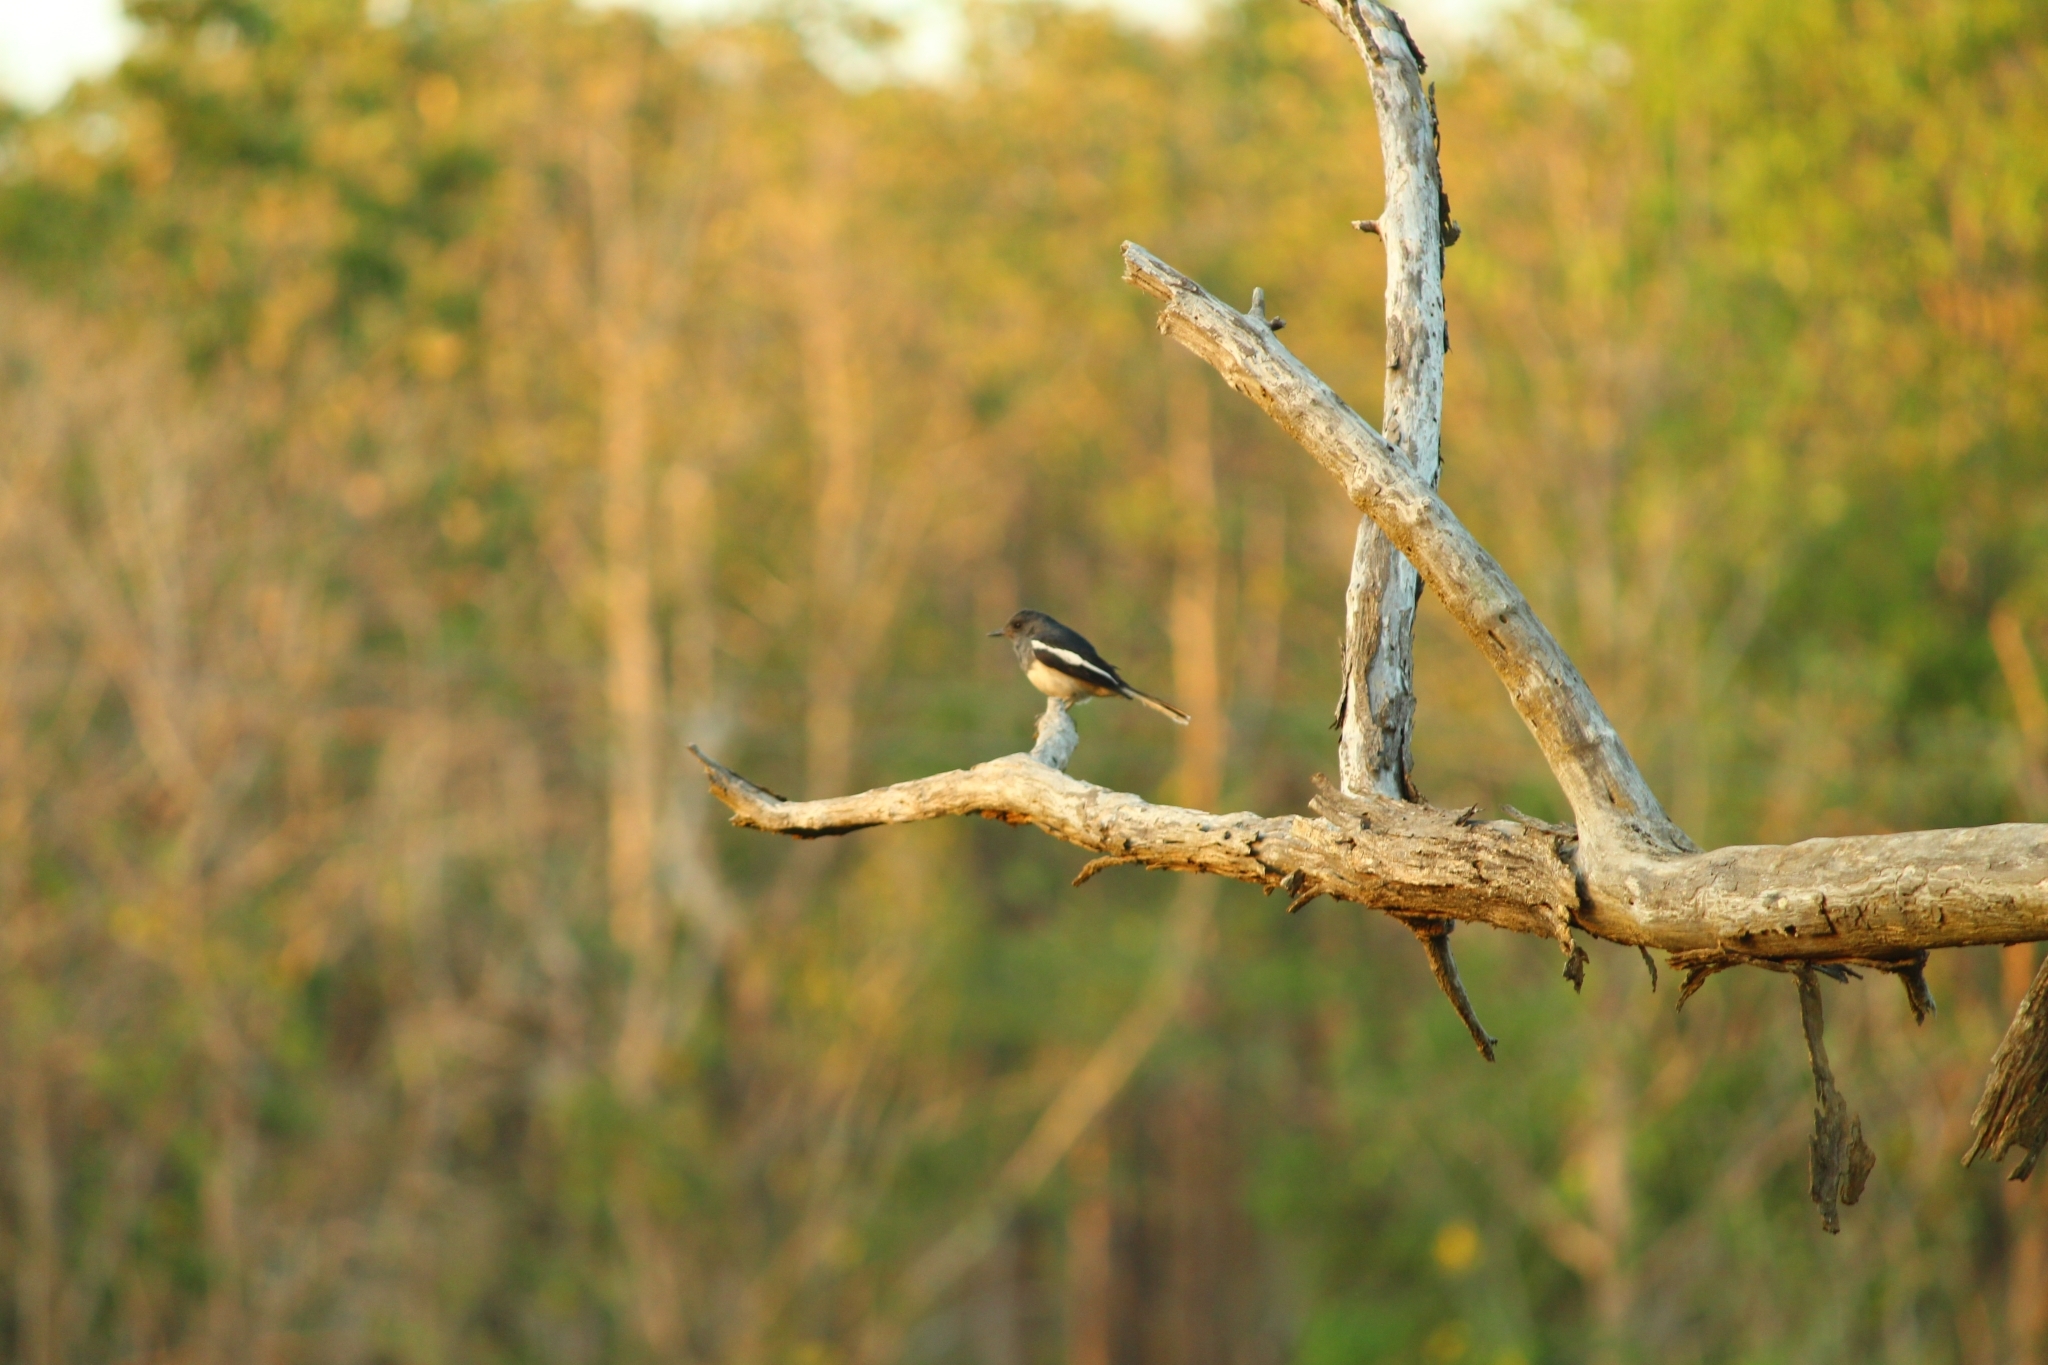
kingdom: Animalia
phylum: Chordata
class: Aves
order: Passeriformes
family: Muscicapidae
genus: Copsychus
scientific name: Copsychus saularis
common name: Oriental magpie-robin
